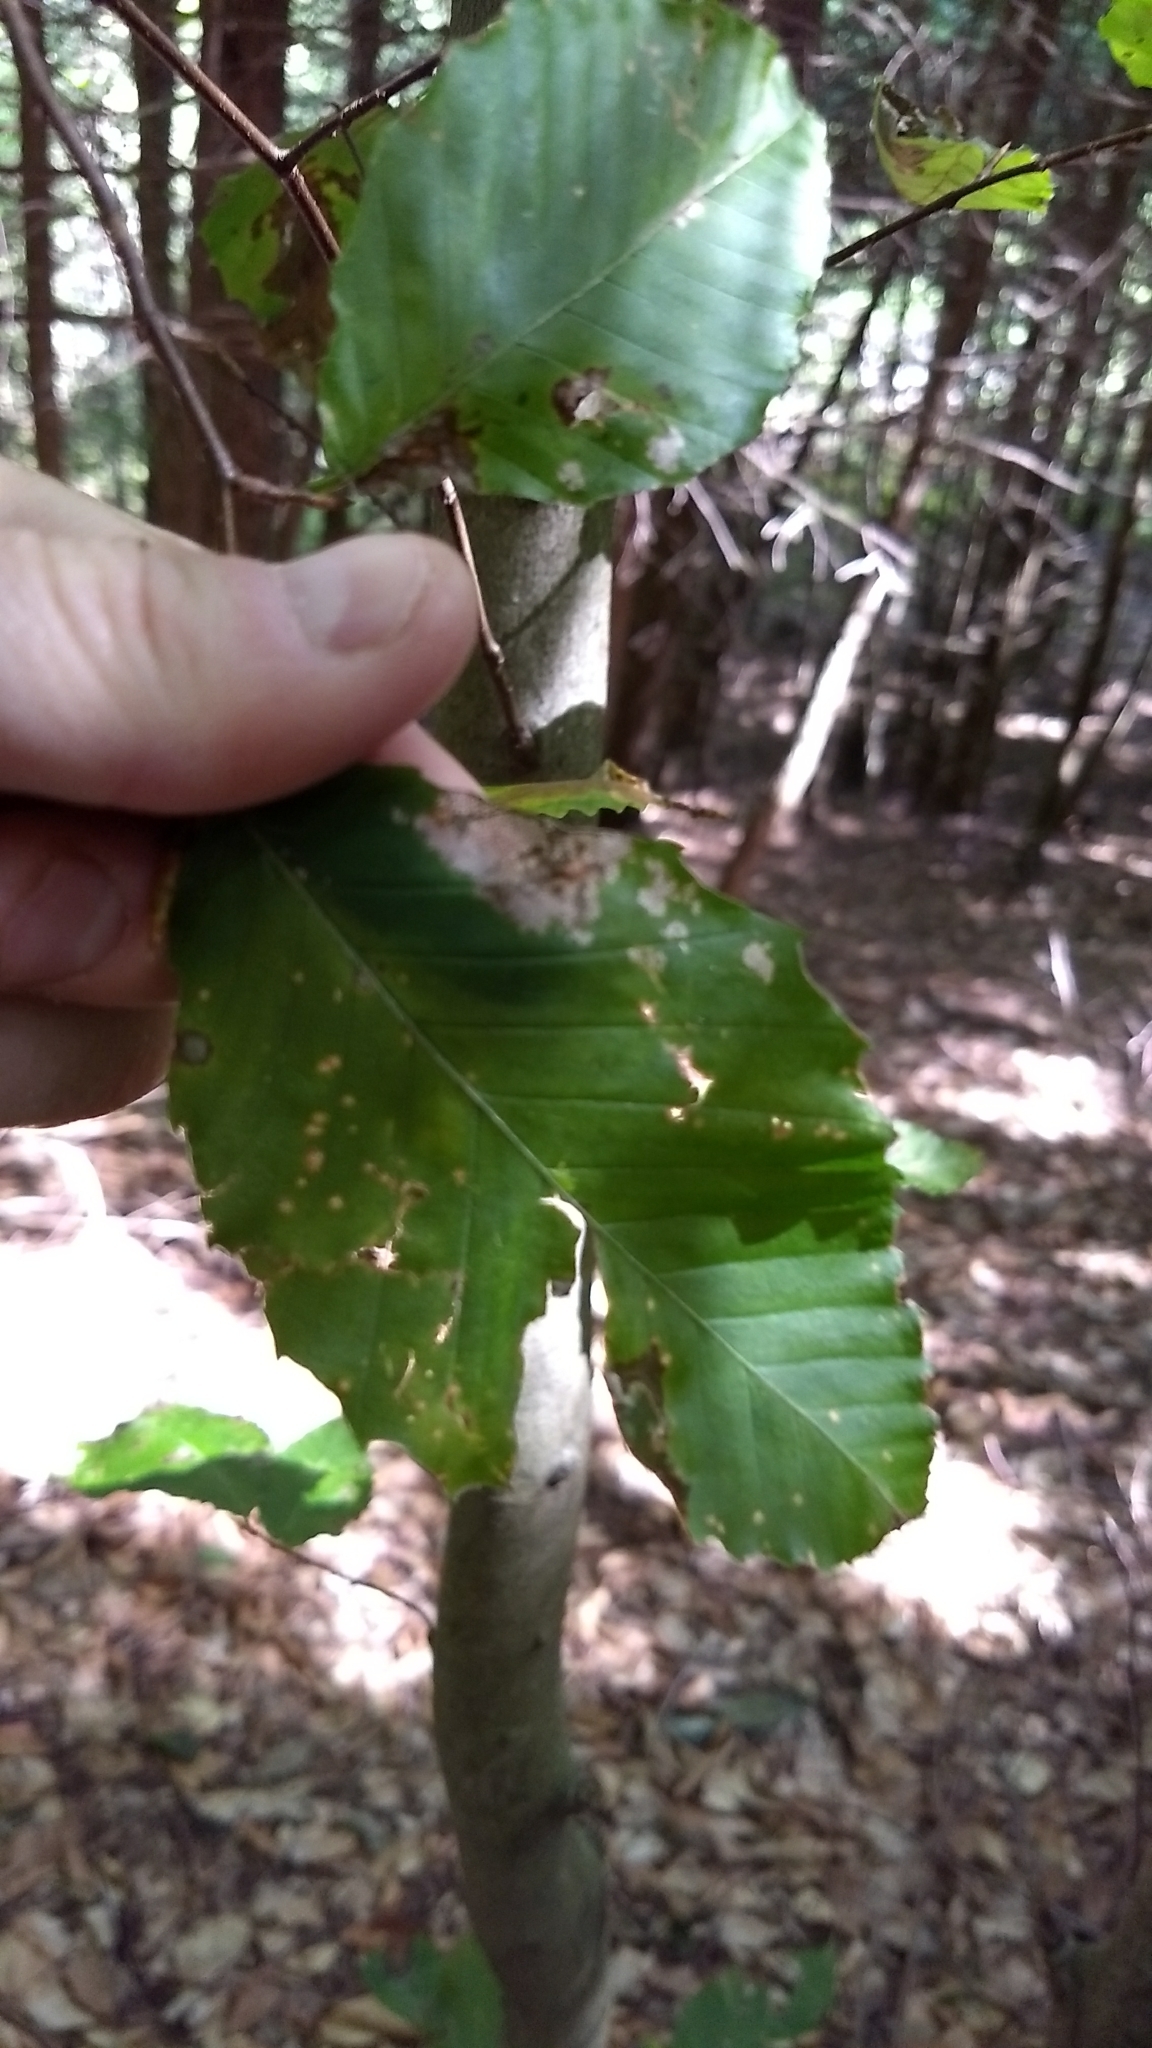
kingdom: Plantae
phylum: Tracheophyta
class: Magnoliopsida
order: Fagales
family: Fagaceae
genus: Fagus
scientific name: Fagus grandifolia
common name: American beech
